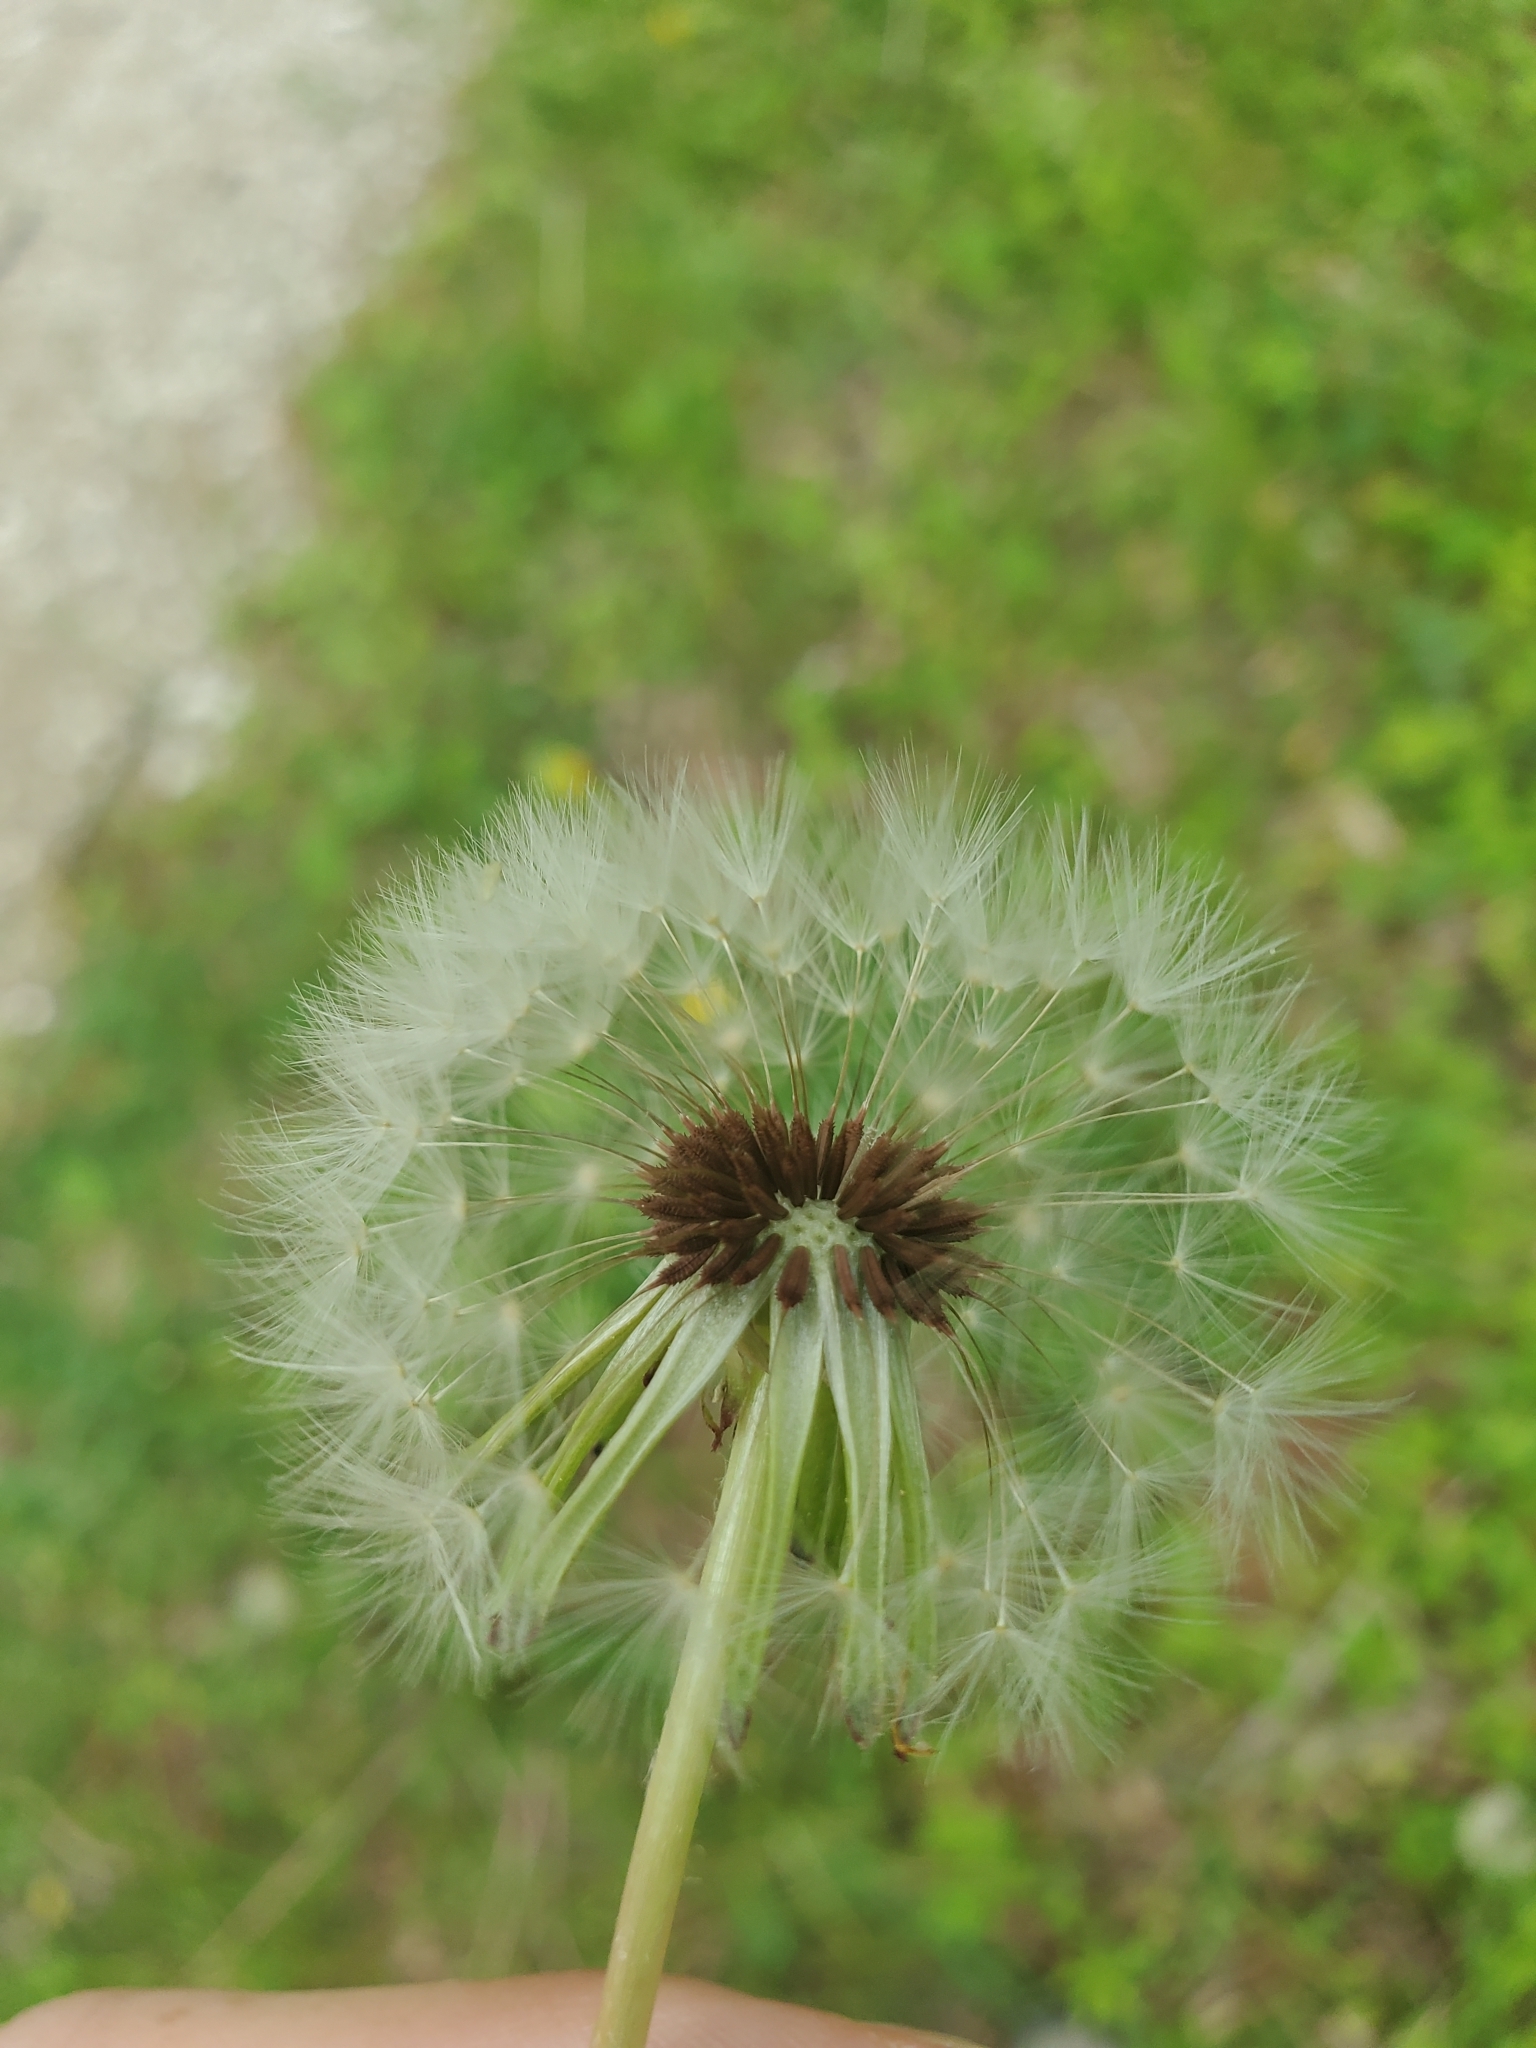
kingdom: Plantae
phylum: Tracheophyta
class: Magnoliopsida
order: Asterales
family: Asteraceae
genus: Taraxacum
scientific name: Taraxacum erythrospermum
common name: Rock dandelion
